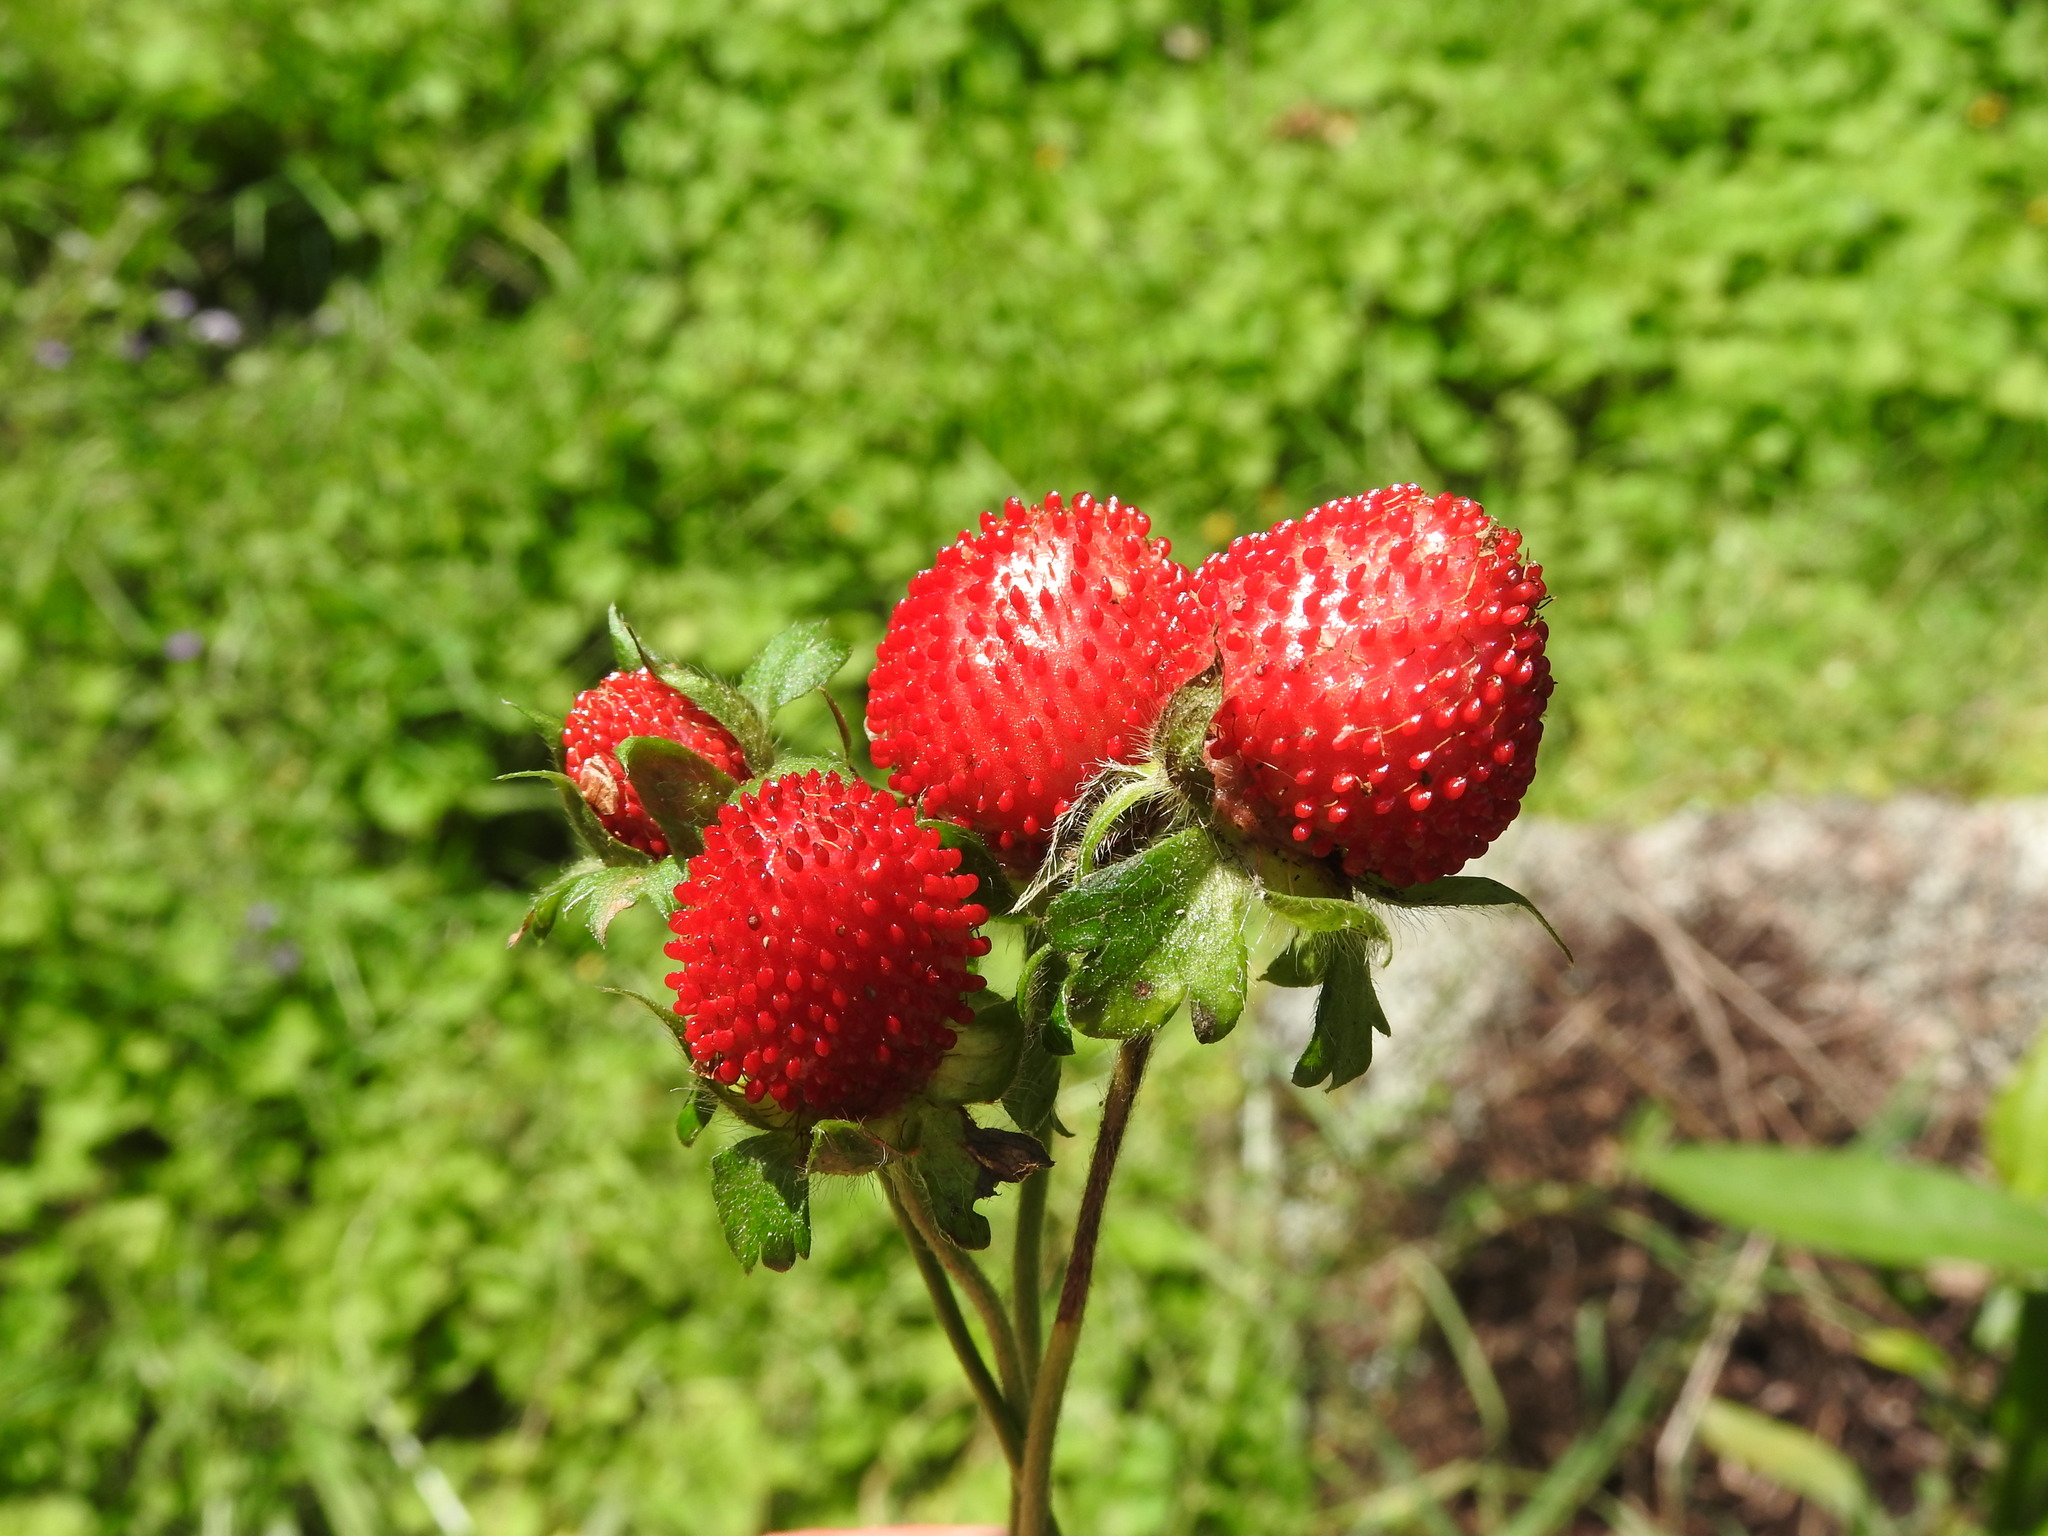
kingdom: Plantae
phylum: Tracheophyta
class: Magnoliopsida
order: Rosales
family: Rosaceae
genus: Potentilla
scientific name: Potentilla indica
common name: Yellow-flowered strawberry
